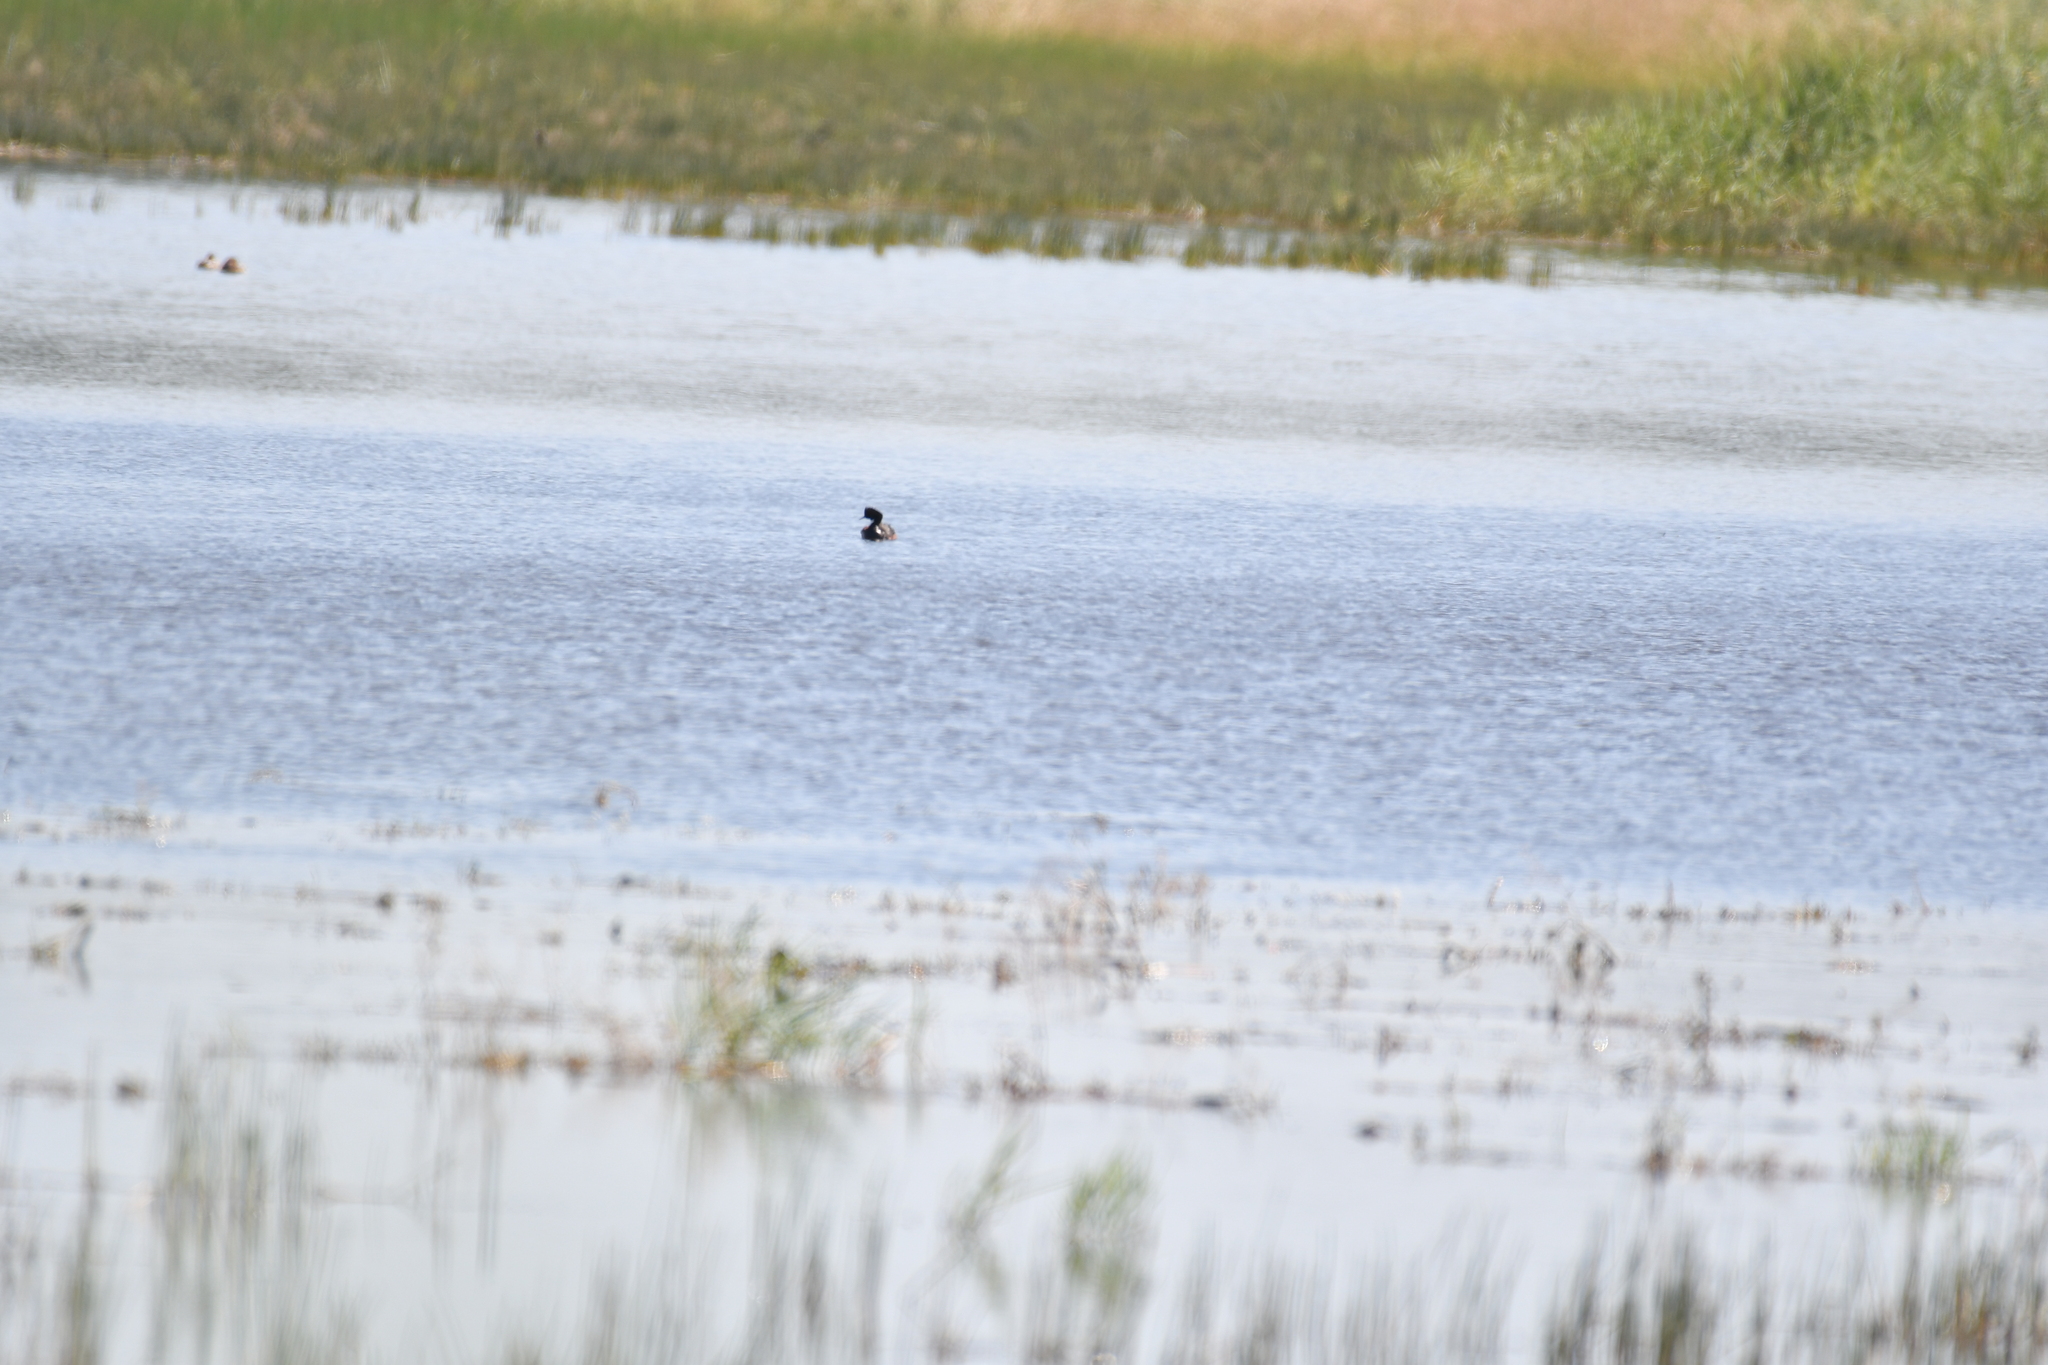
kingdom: Animalia
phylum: Chordata
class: Aves
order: Podicipediformes
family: Podicipedidae
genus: Podiceps
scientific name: Podiceps nigricollis
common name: Black-necked grebe
